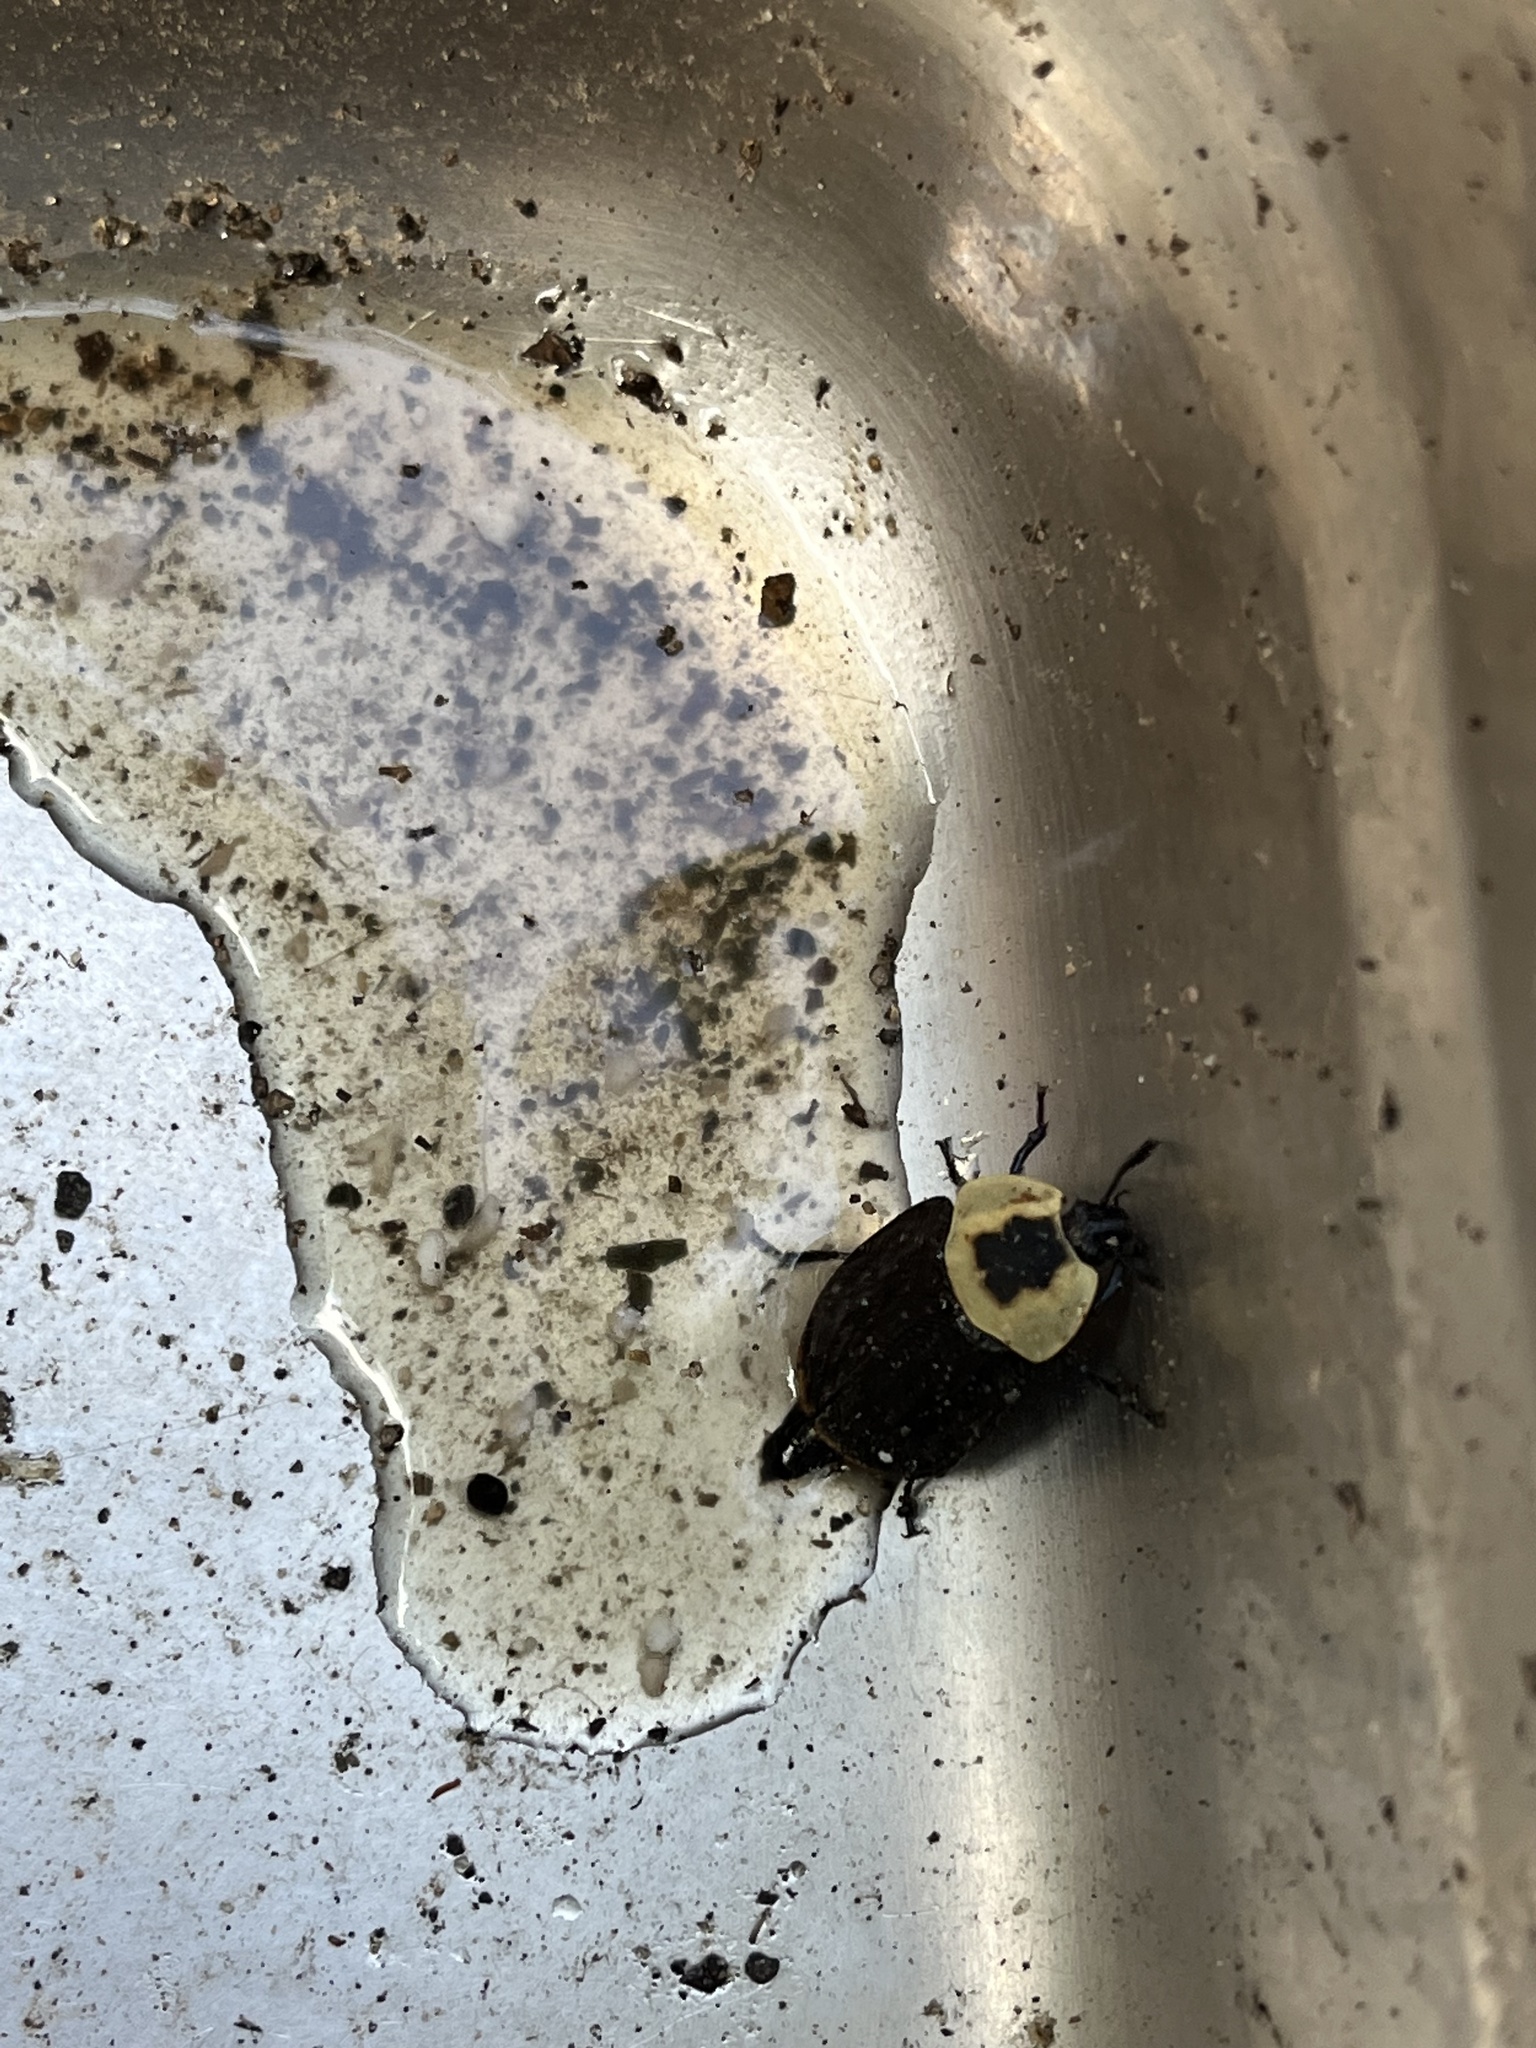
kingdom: Animalia
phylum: Arthropoda
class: Insecta
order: Coleoptera
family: Staphylinidae
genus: Necrophila
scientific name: Necrophila americana
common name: American carrion beetle
